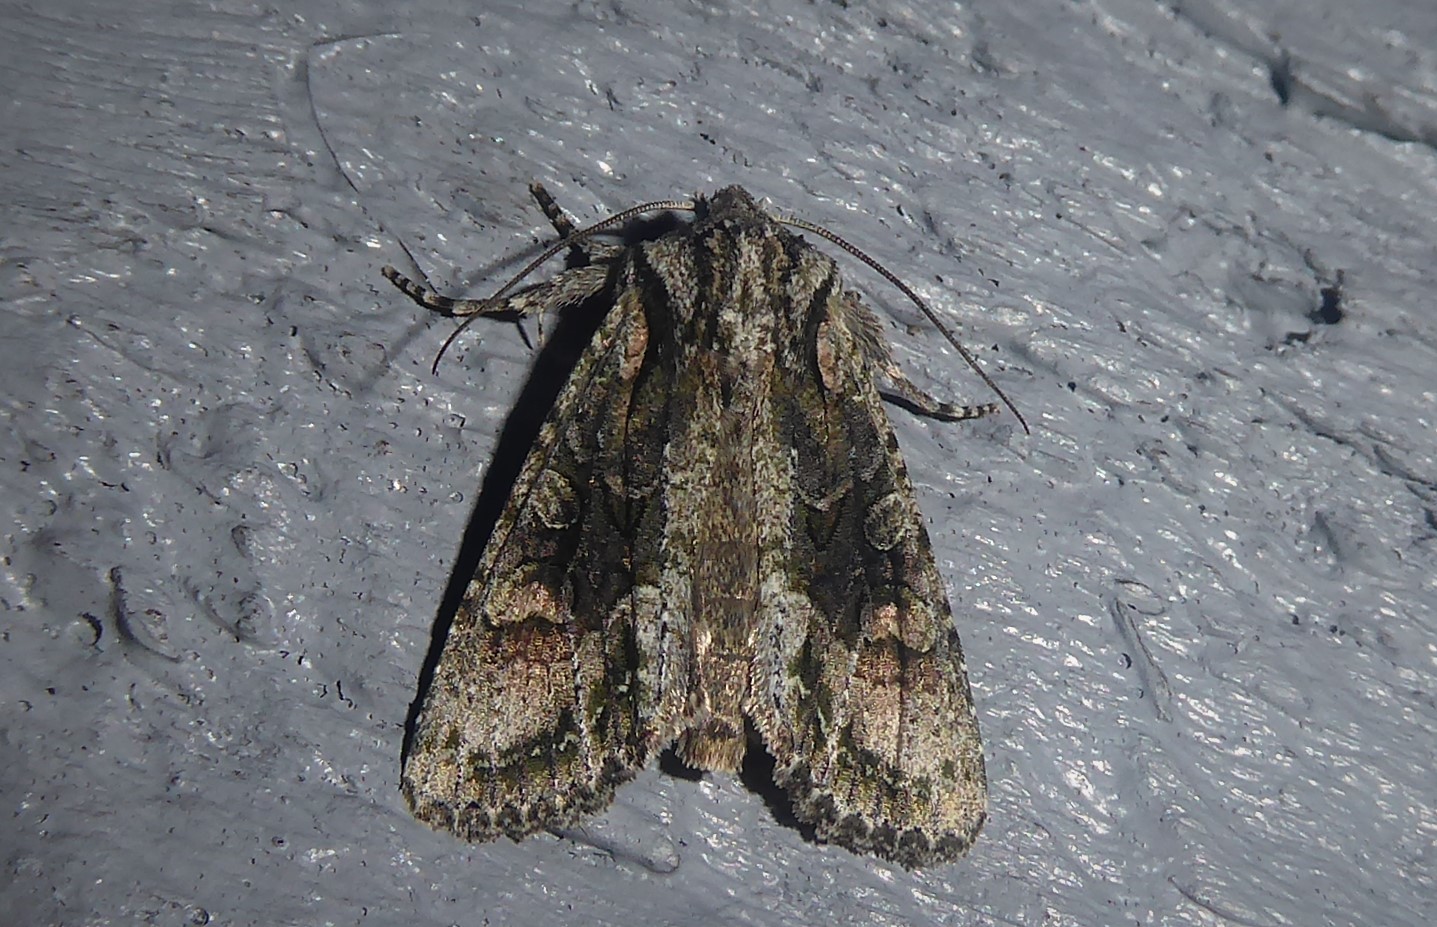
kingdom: Animalia
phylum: Arthropoda
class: Insecta
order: Lepidoptera
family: Noctuidae
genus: Ichneutica
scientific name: Ichneutica mutans
